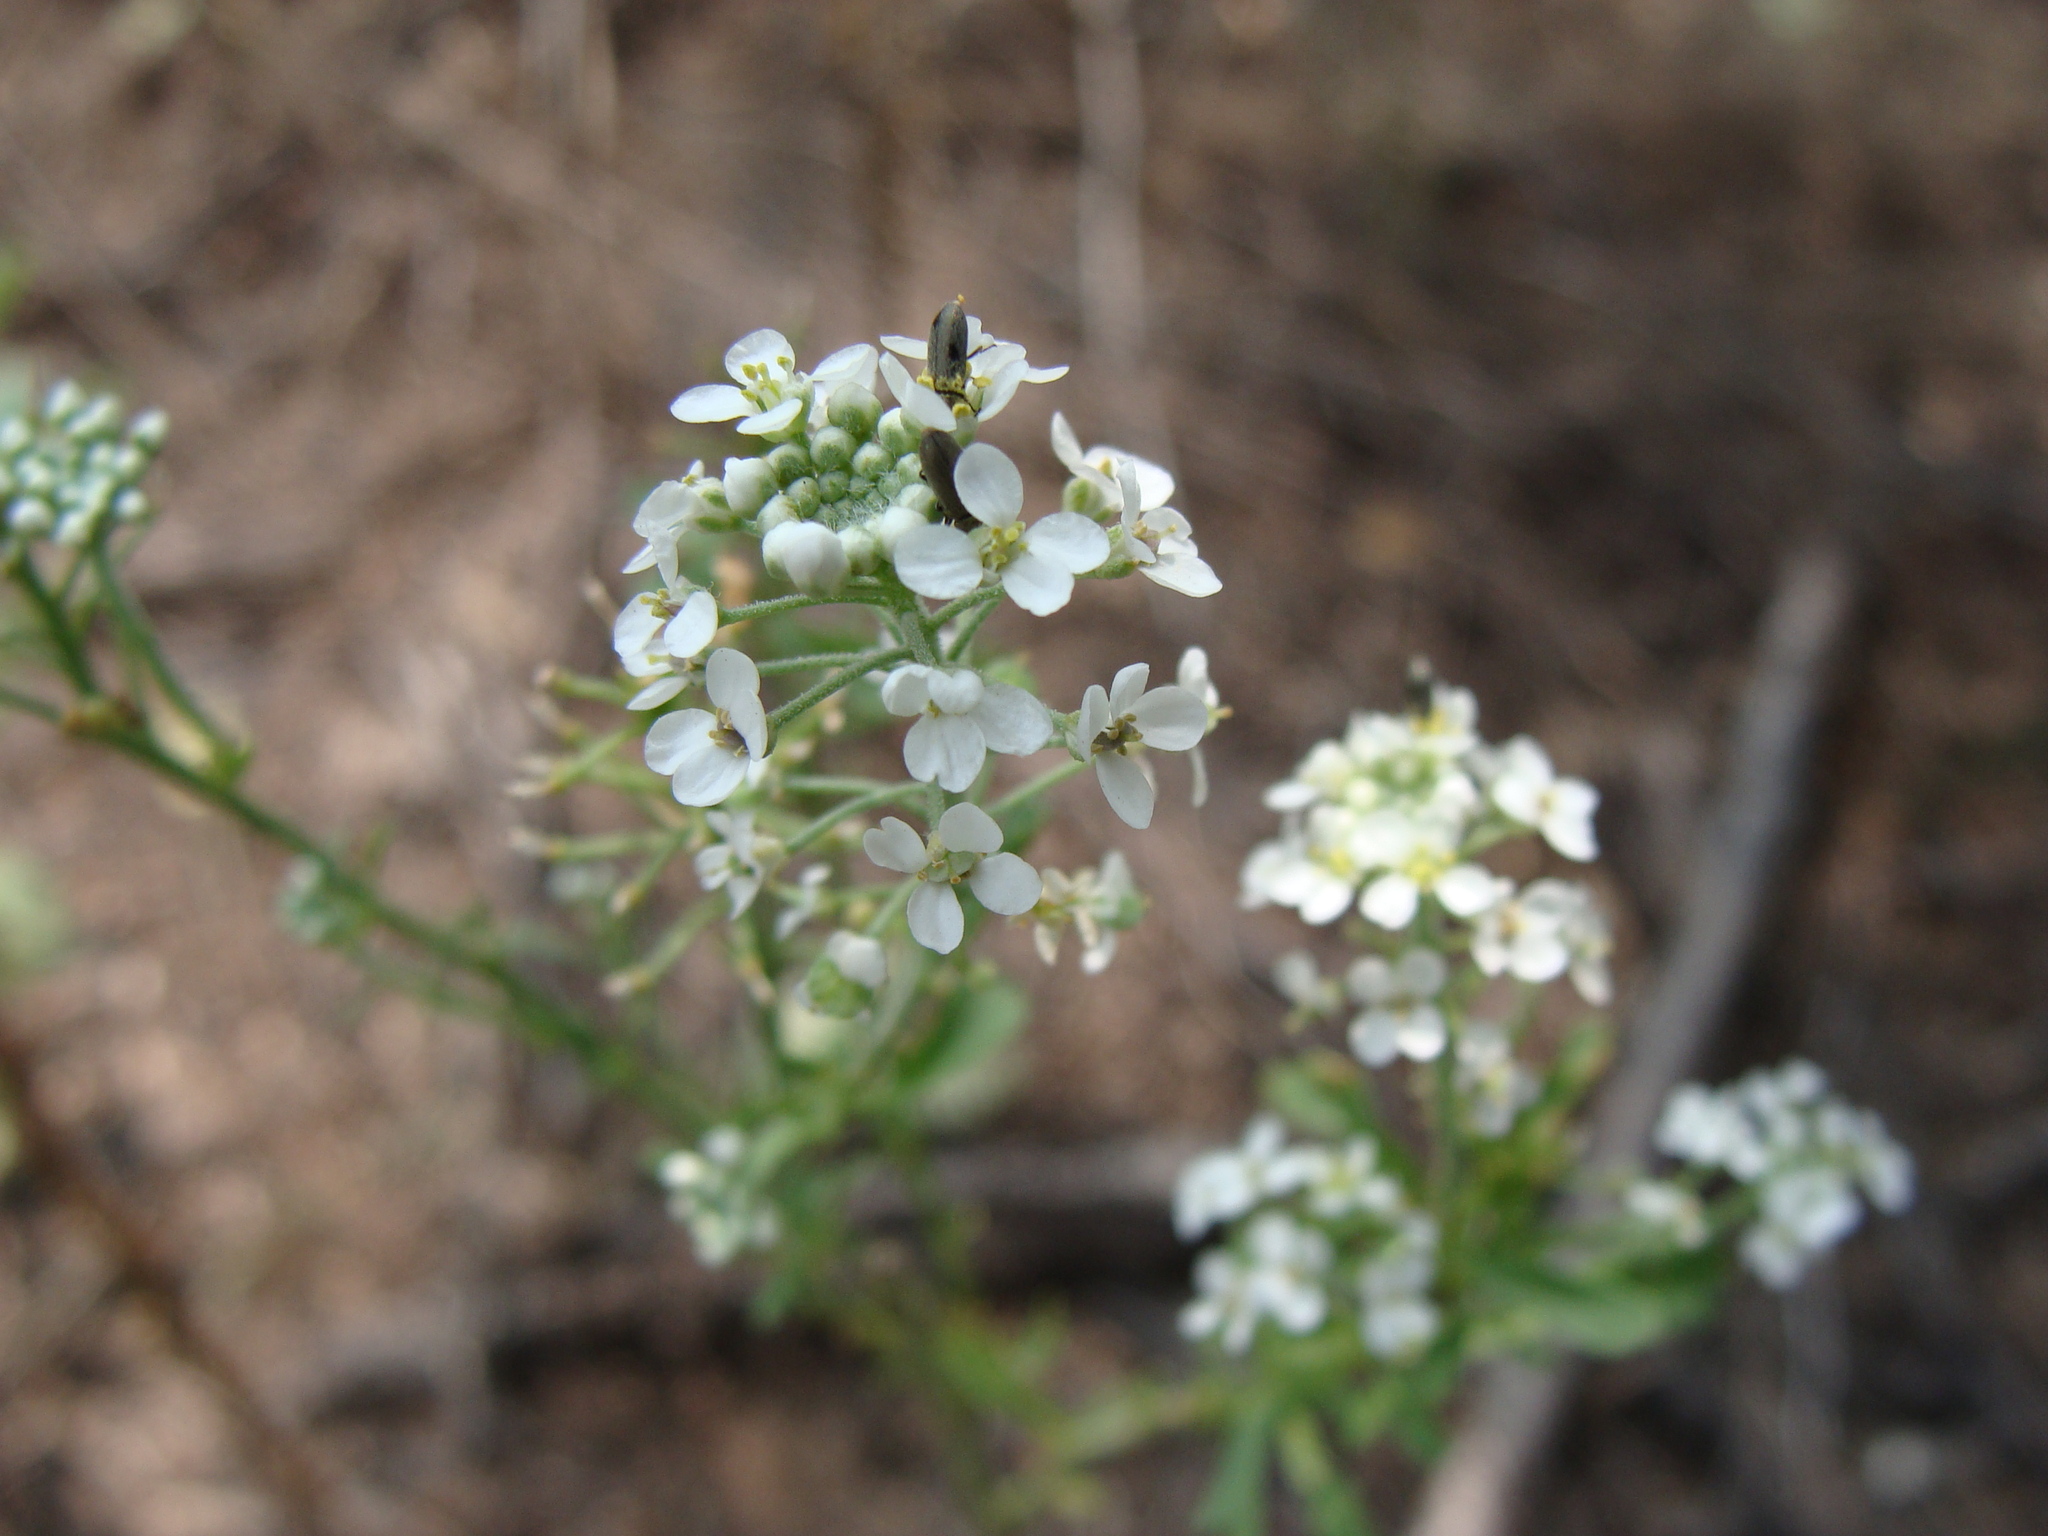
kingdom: Plantae
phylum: Tracheophyta
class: Magnoliopsida
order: Brassicales
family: Brassicaceae
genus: Lepidium
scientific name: Lepidium montanum
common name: Mountain pepperplant
